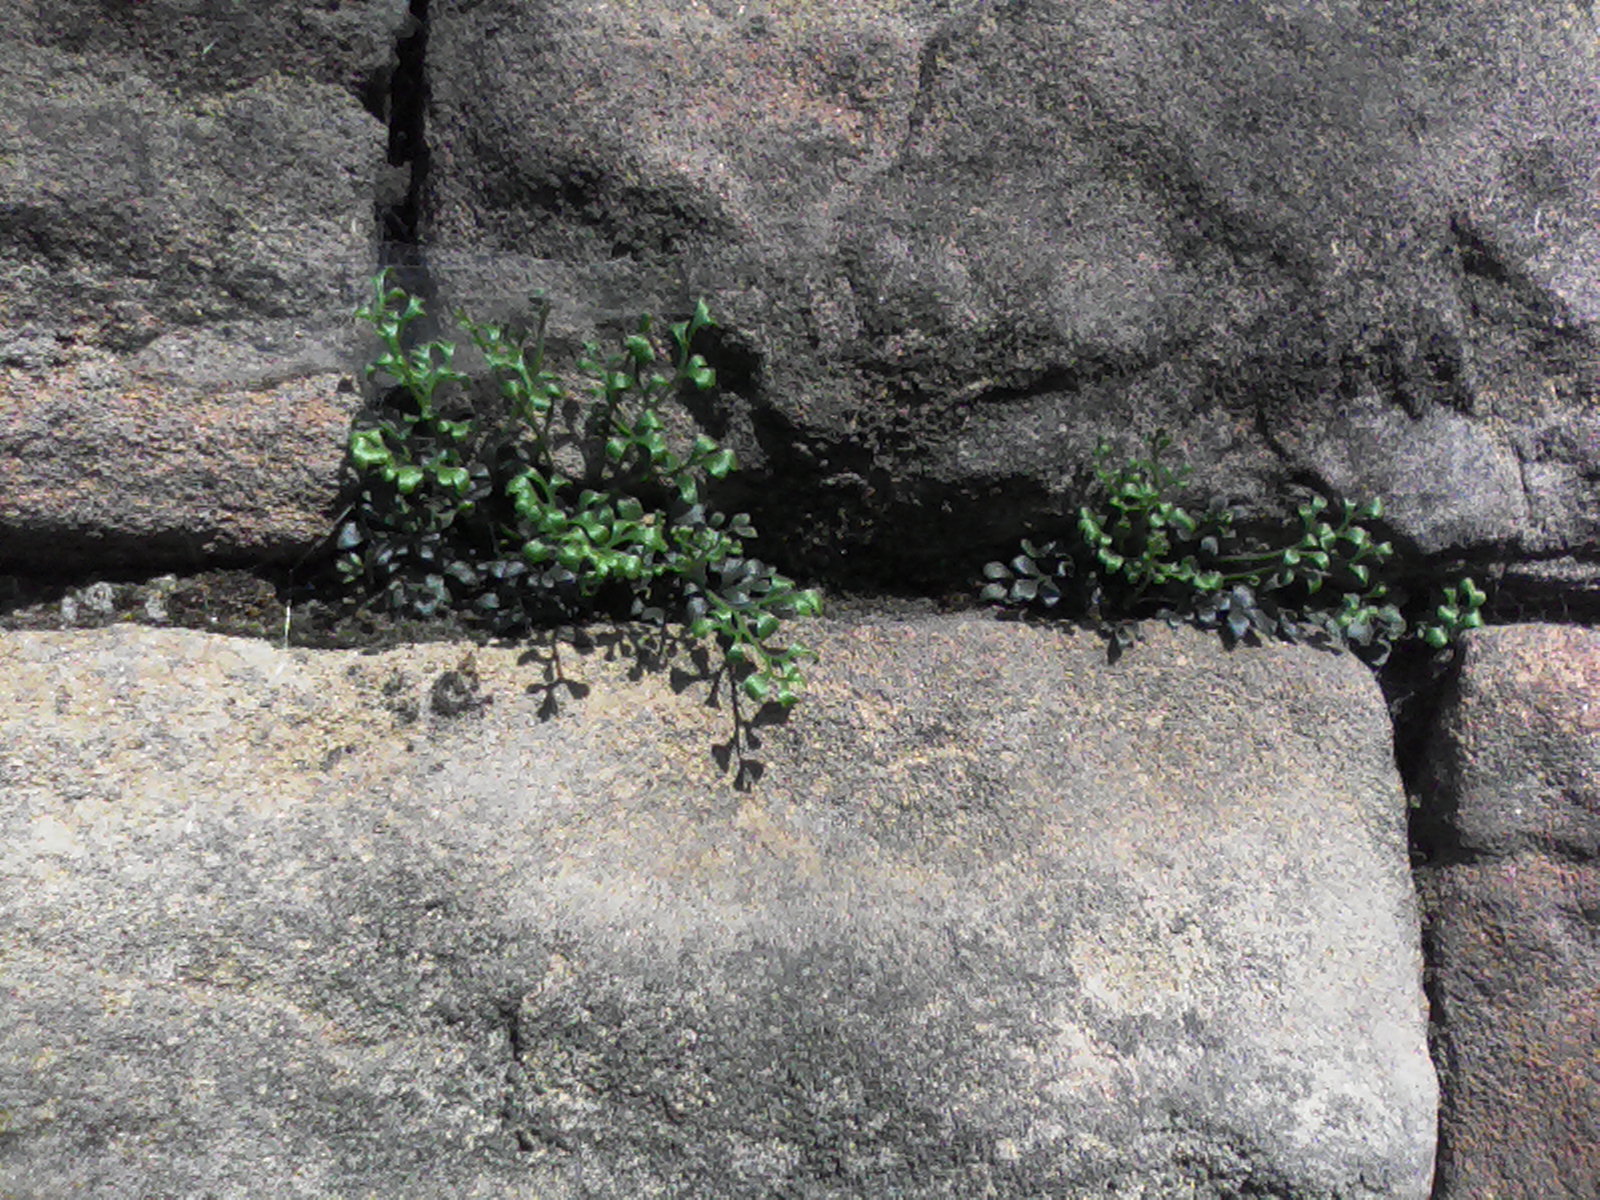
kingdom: Plantae
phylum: Tracheophyta
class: Polypodiopsida
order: Polypodiales
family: Aspleniaceae
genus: Asplenium
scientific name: Asplenium ruta-muraria
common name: Wall-rue
